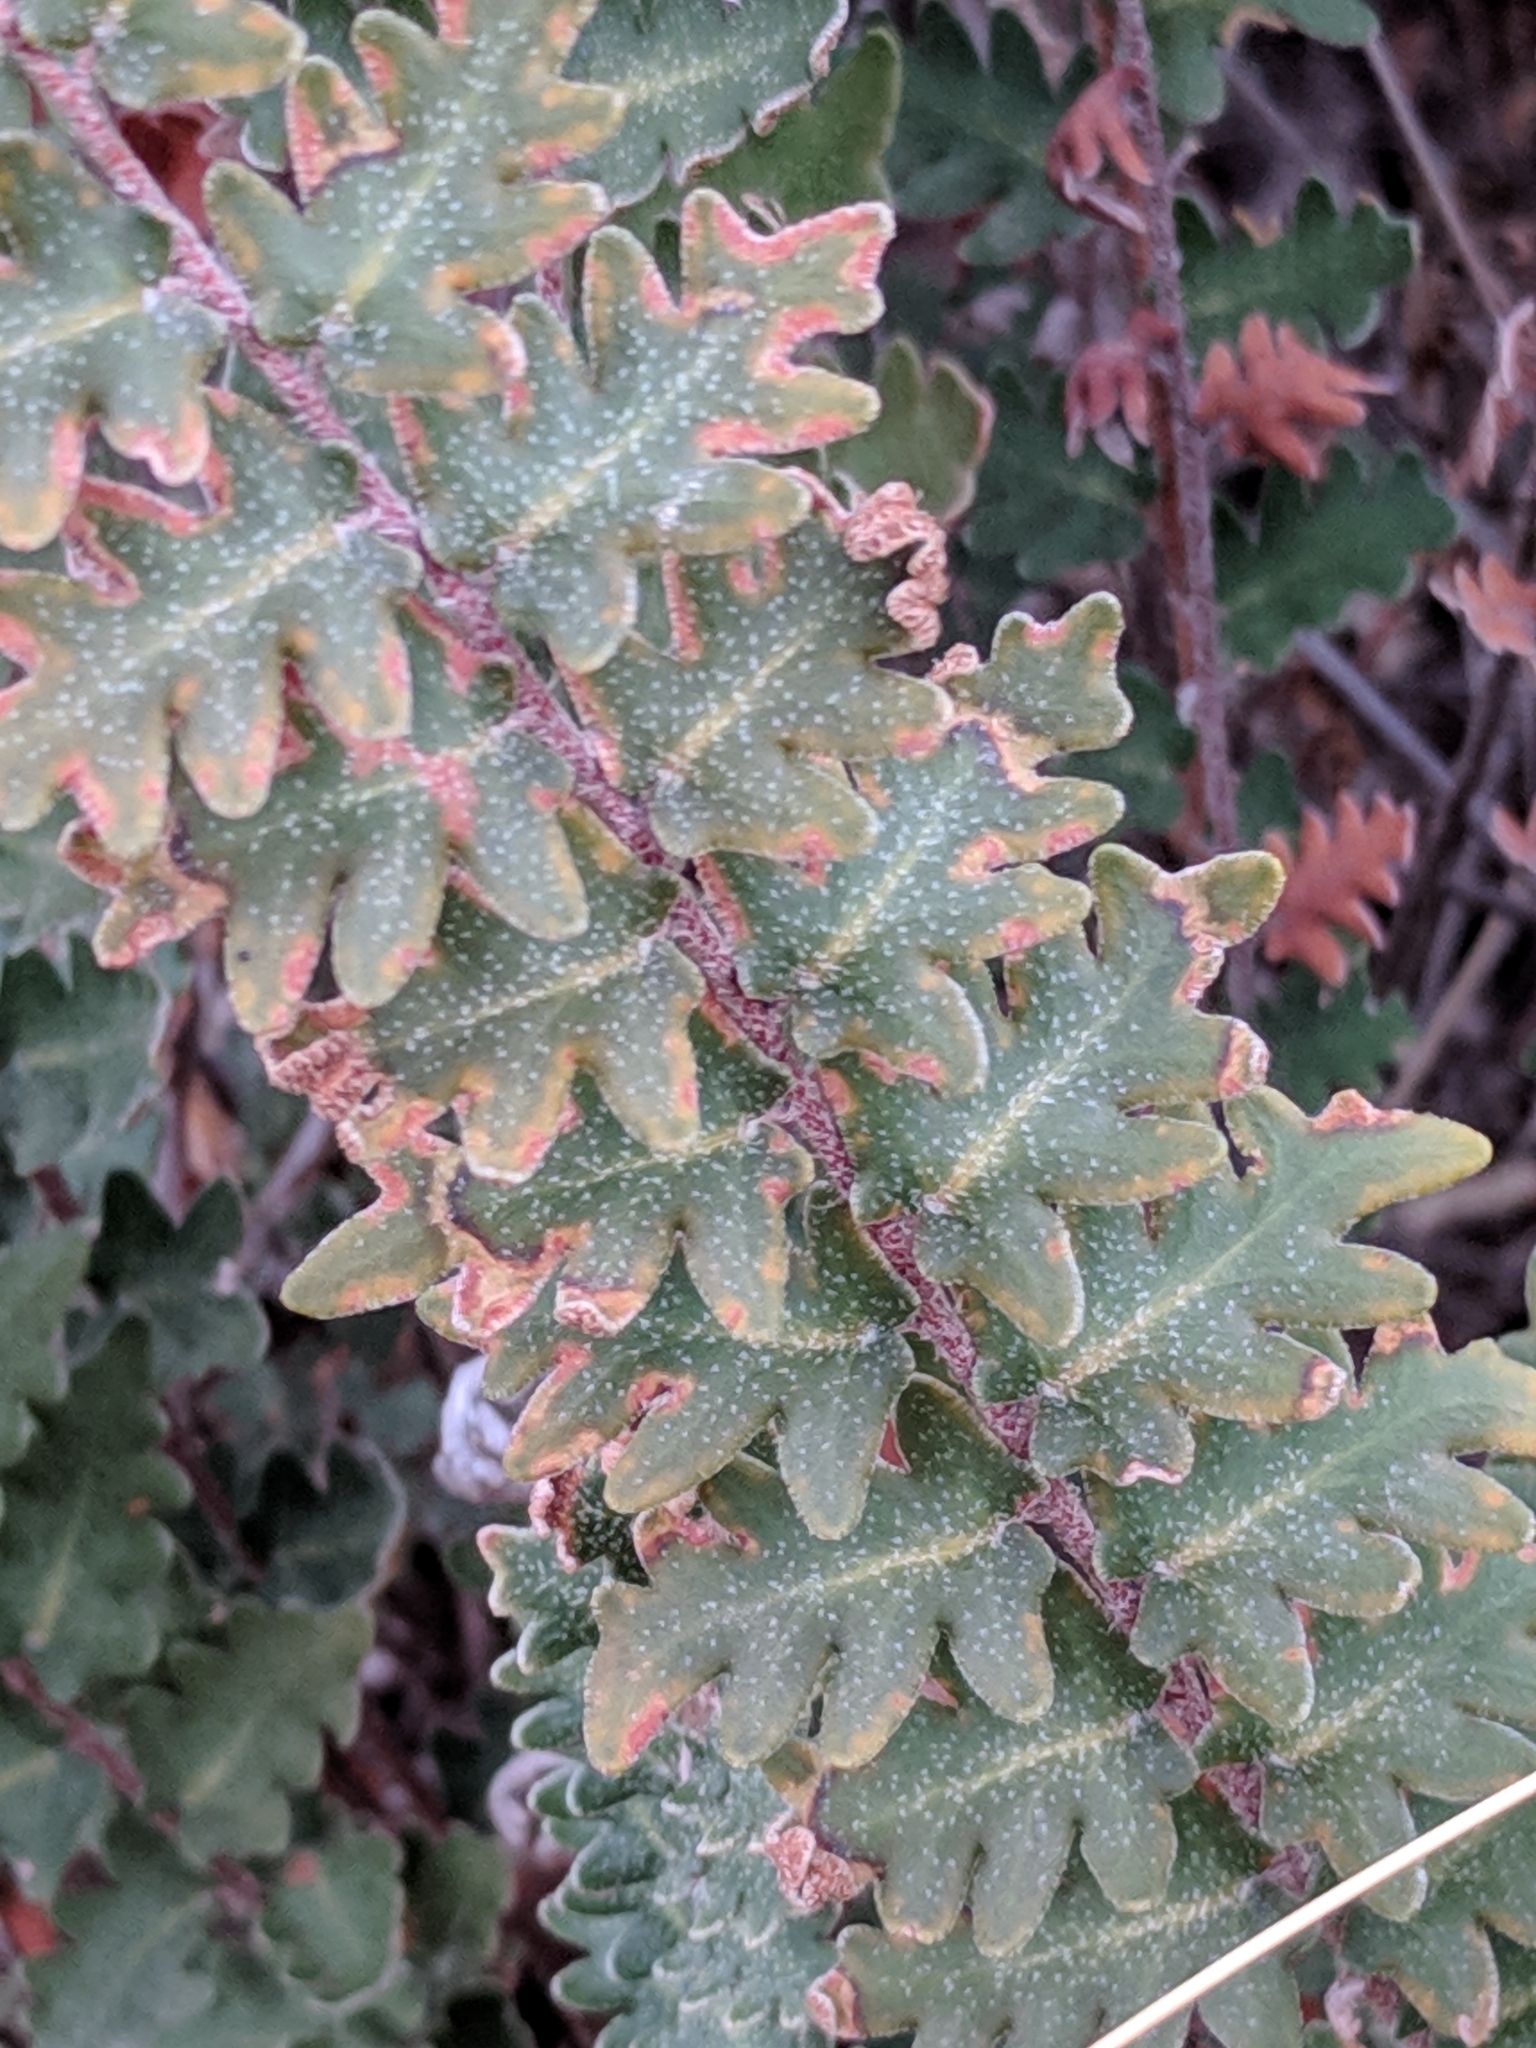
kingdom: Plantae
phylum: Tracheophyta
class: Polypodiopsida
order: Polypodiales
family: Pteridaceae
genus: Astrolepis
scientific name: Astrolepis sinuata
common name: Wavy scaly cloakfern
